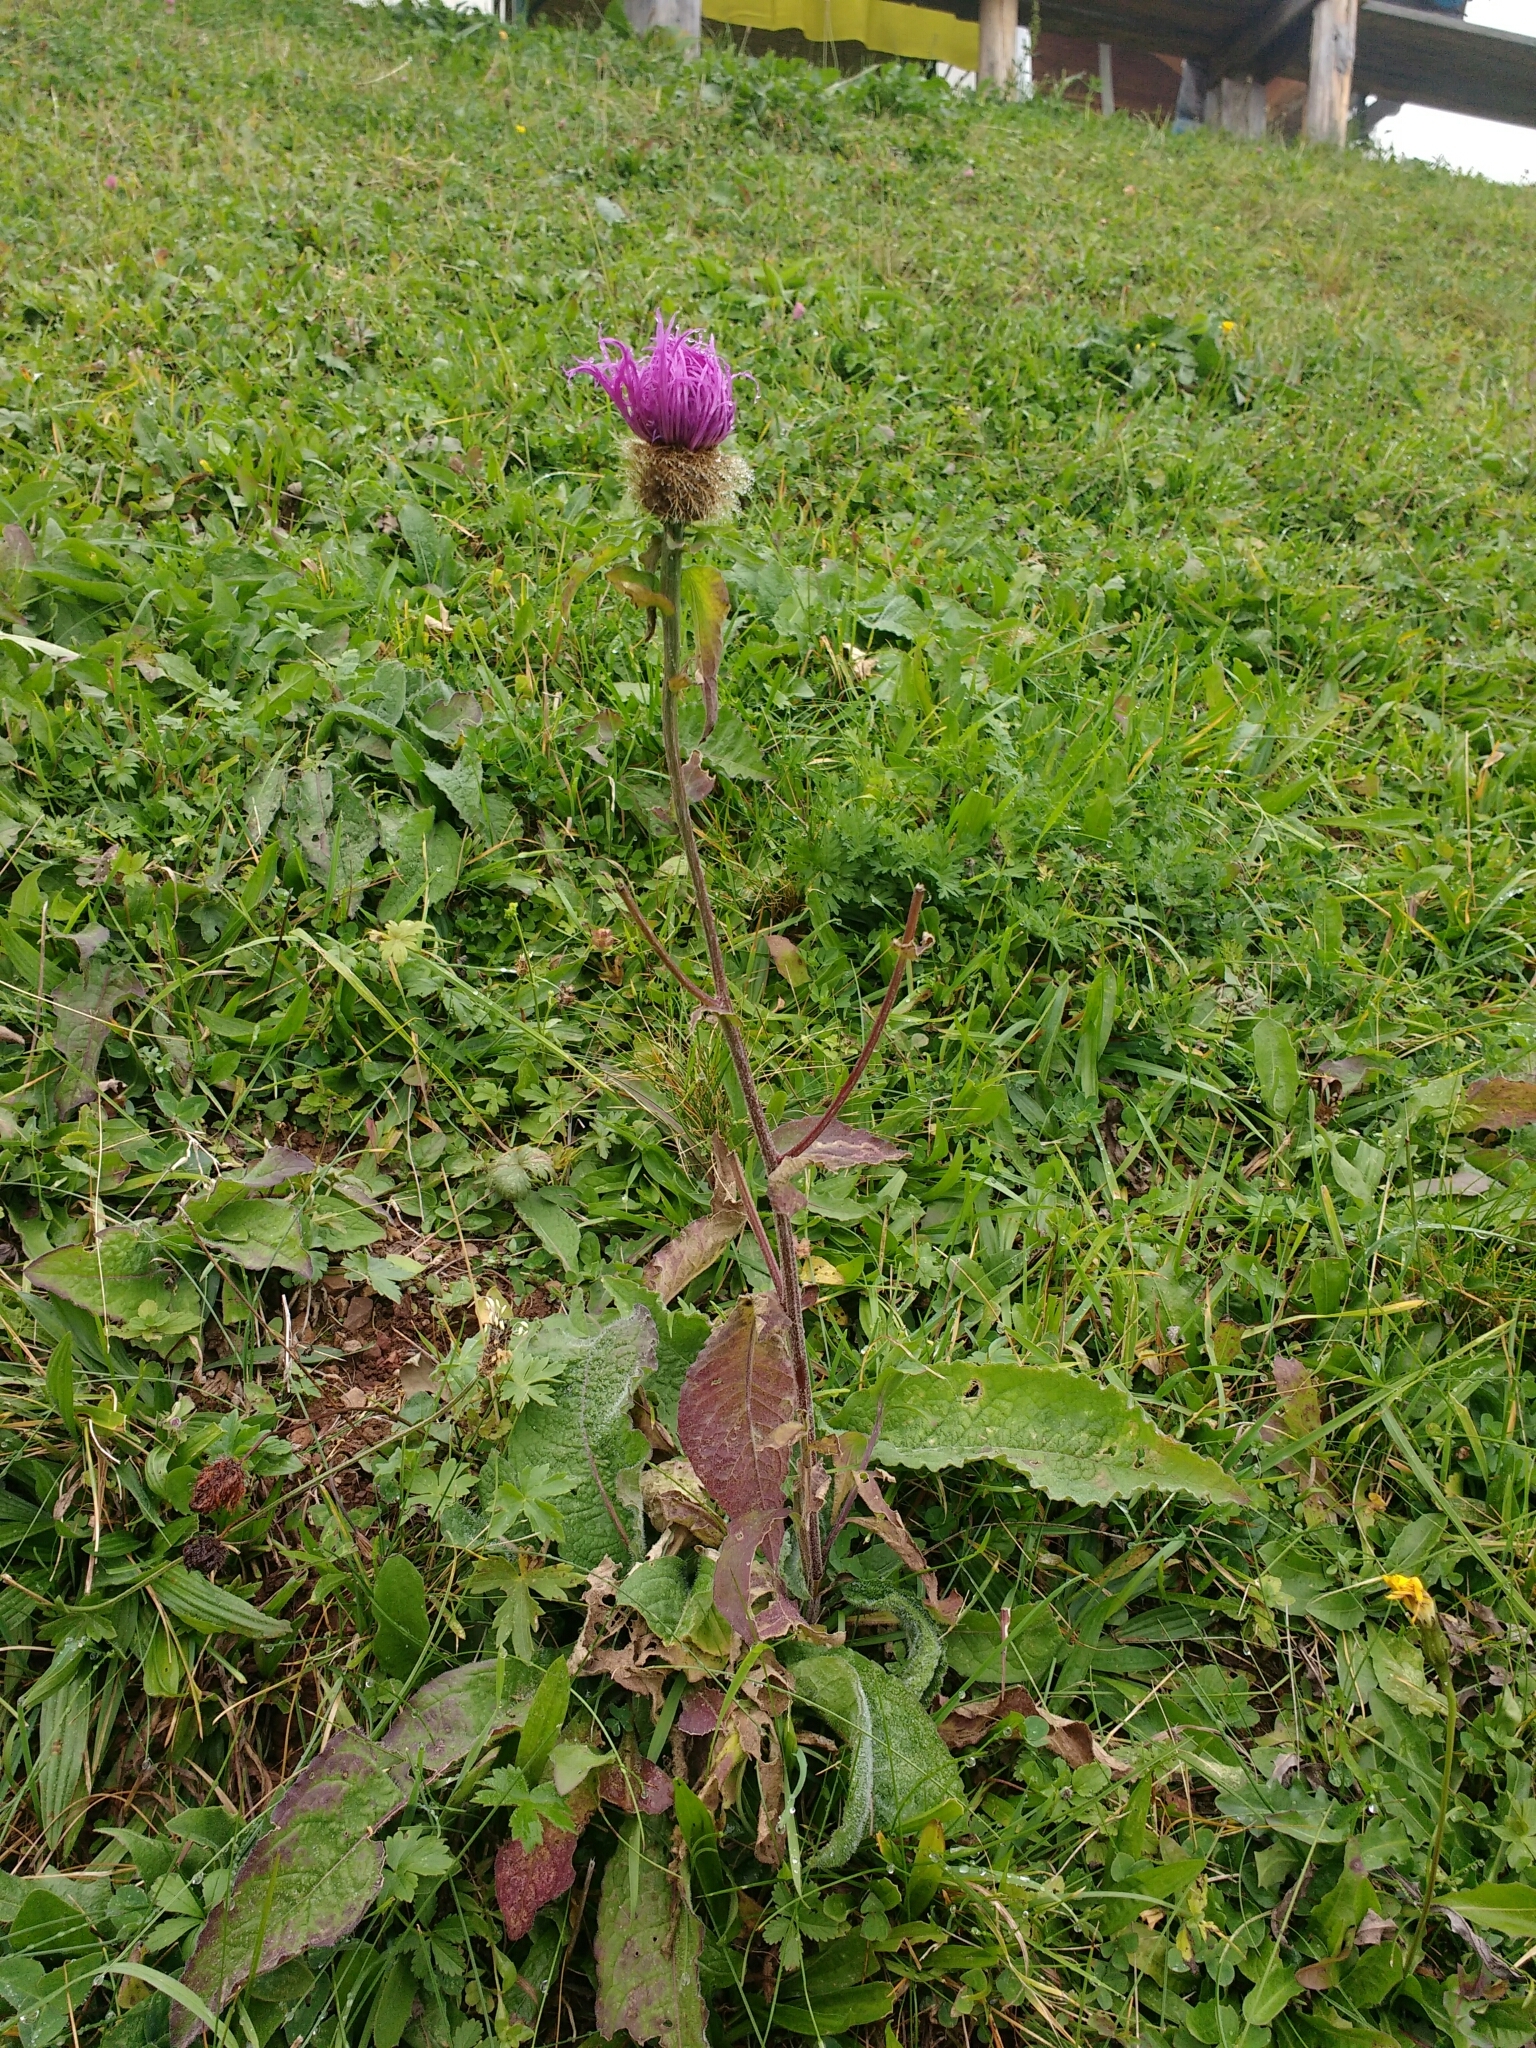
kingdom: Plantae
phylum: Tracheophyta
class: Magnoliopsida
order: Asterales
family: Asteraceae
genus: Centaurea
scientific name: Centaurea pseudophrygia
